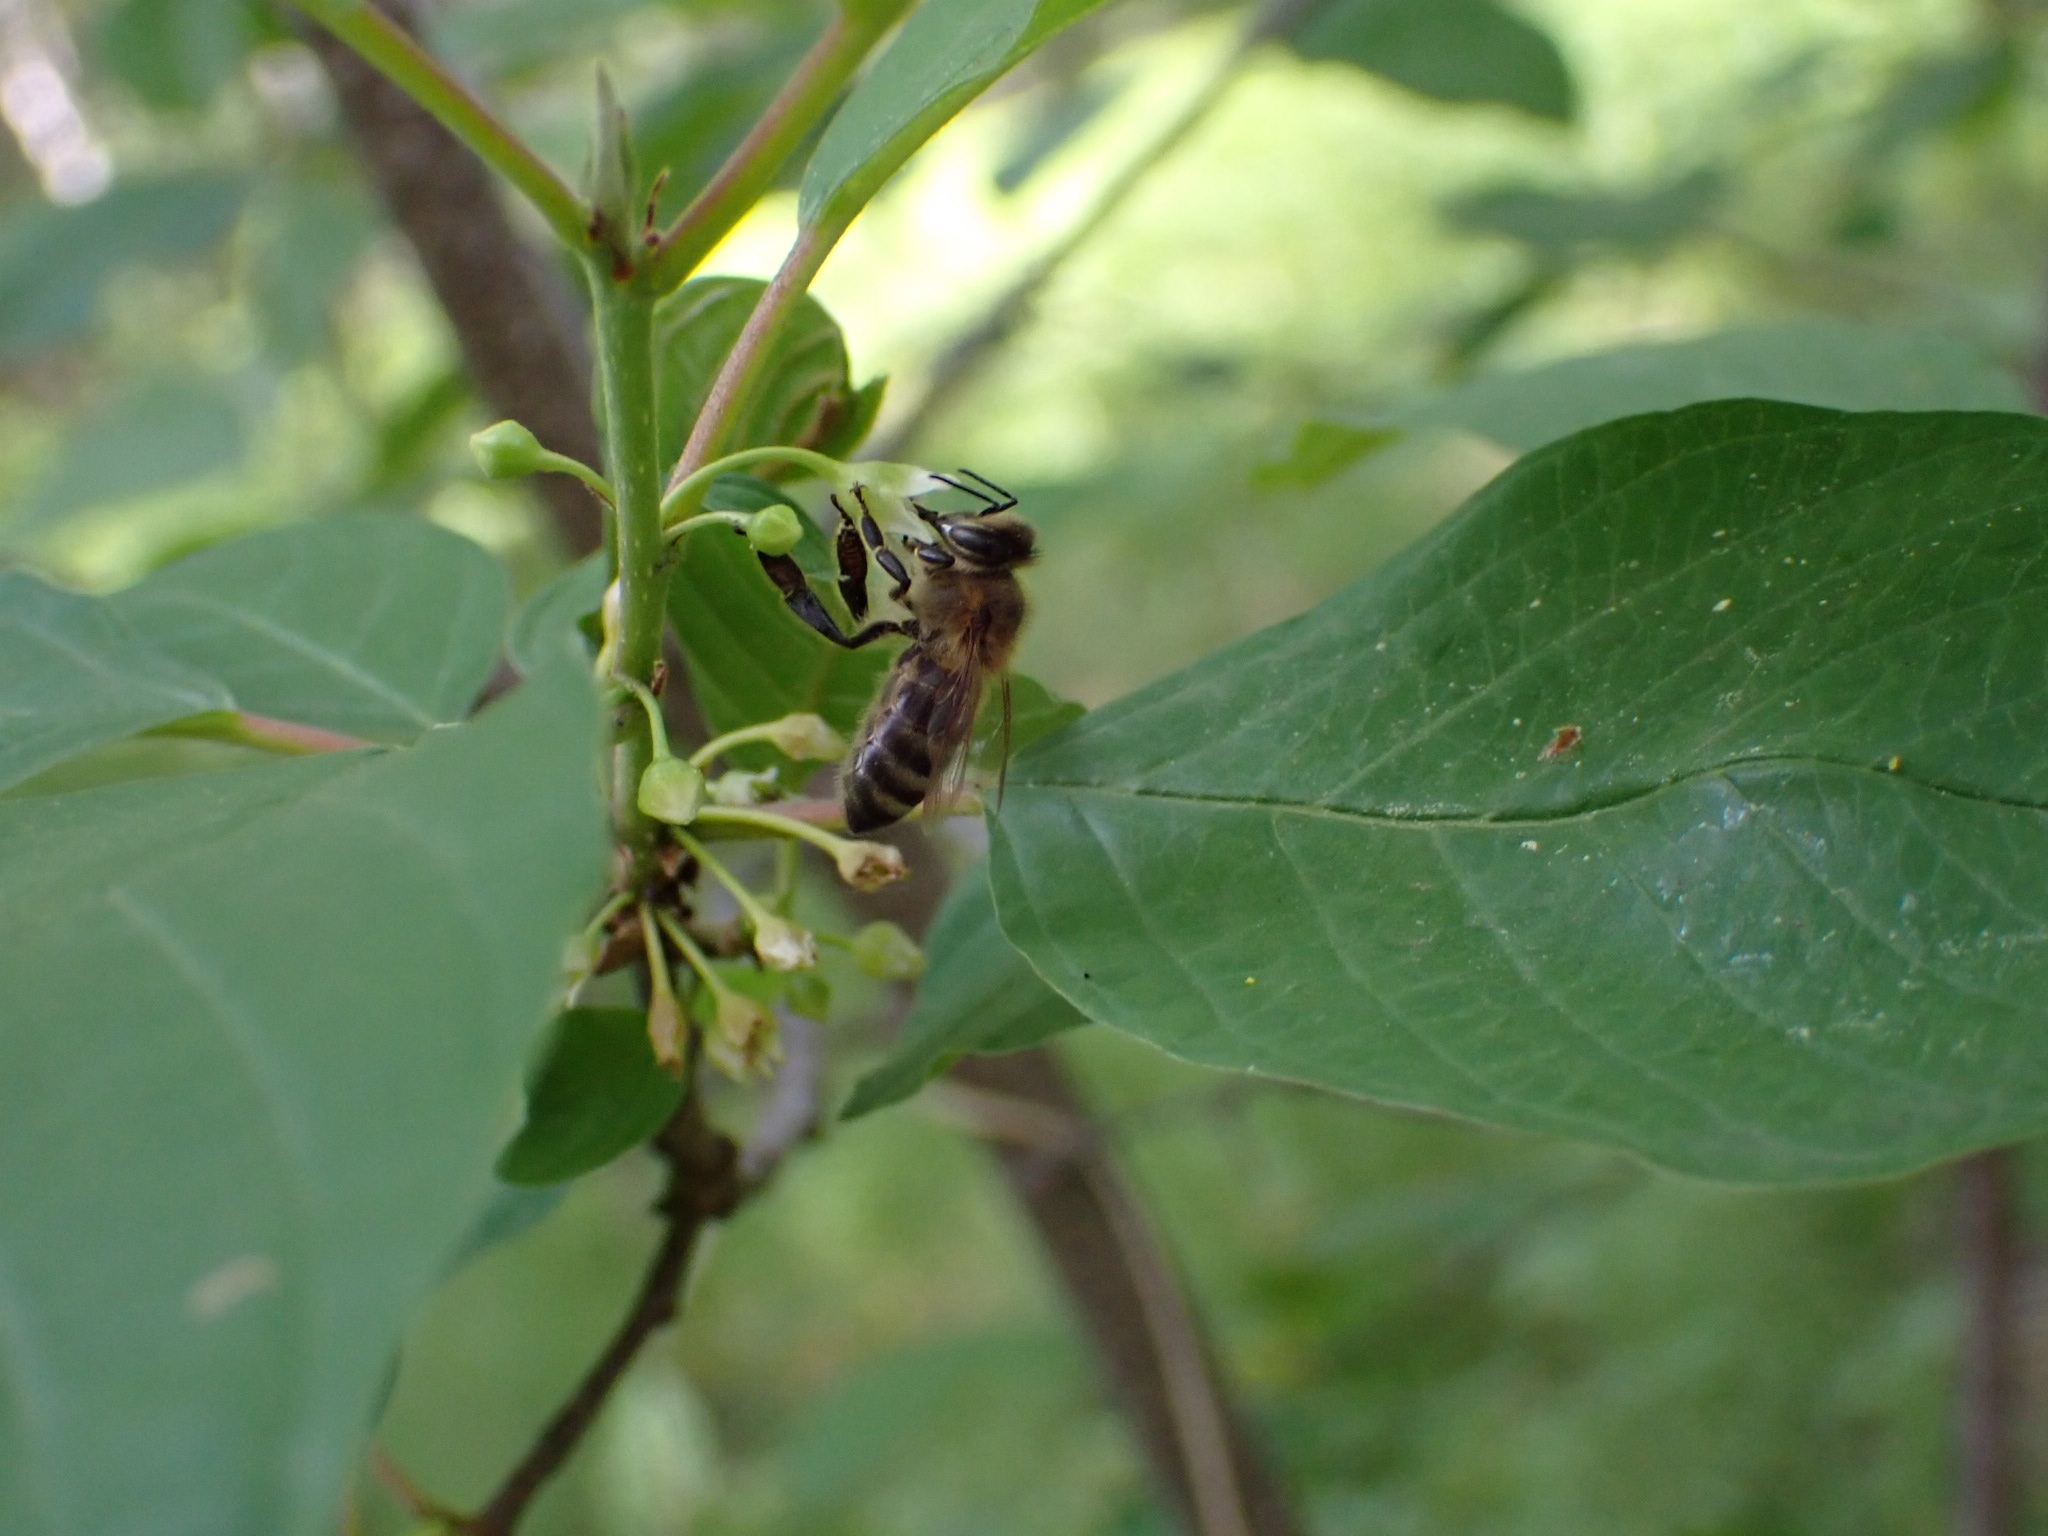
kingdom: Animalia
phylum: Arthropoda
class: Insecta
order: Hymenoptera
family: Apidae
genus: Apis
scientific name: Apis mellifera
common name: Honey bee
